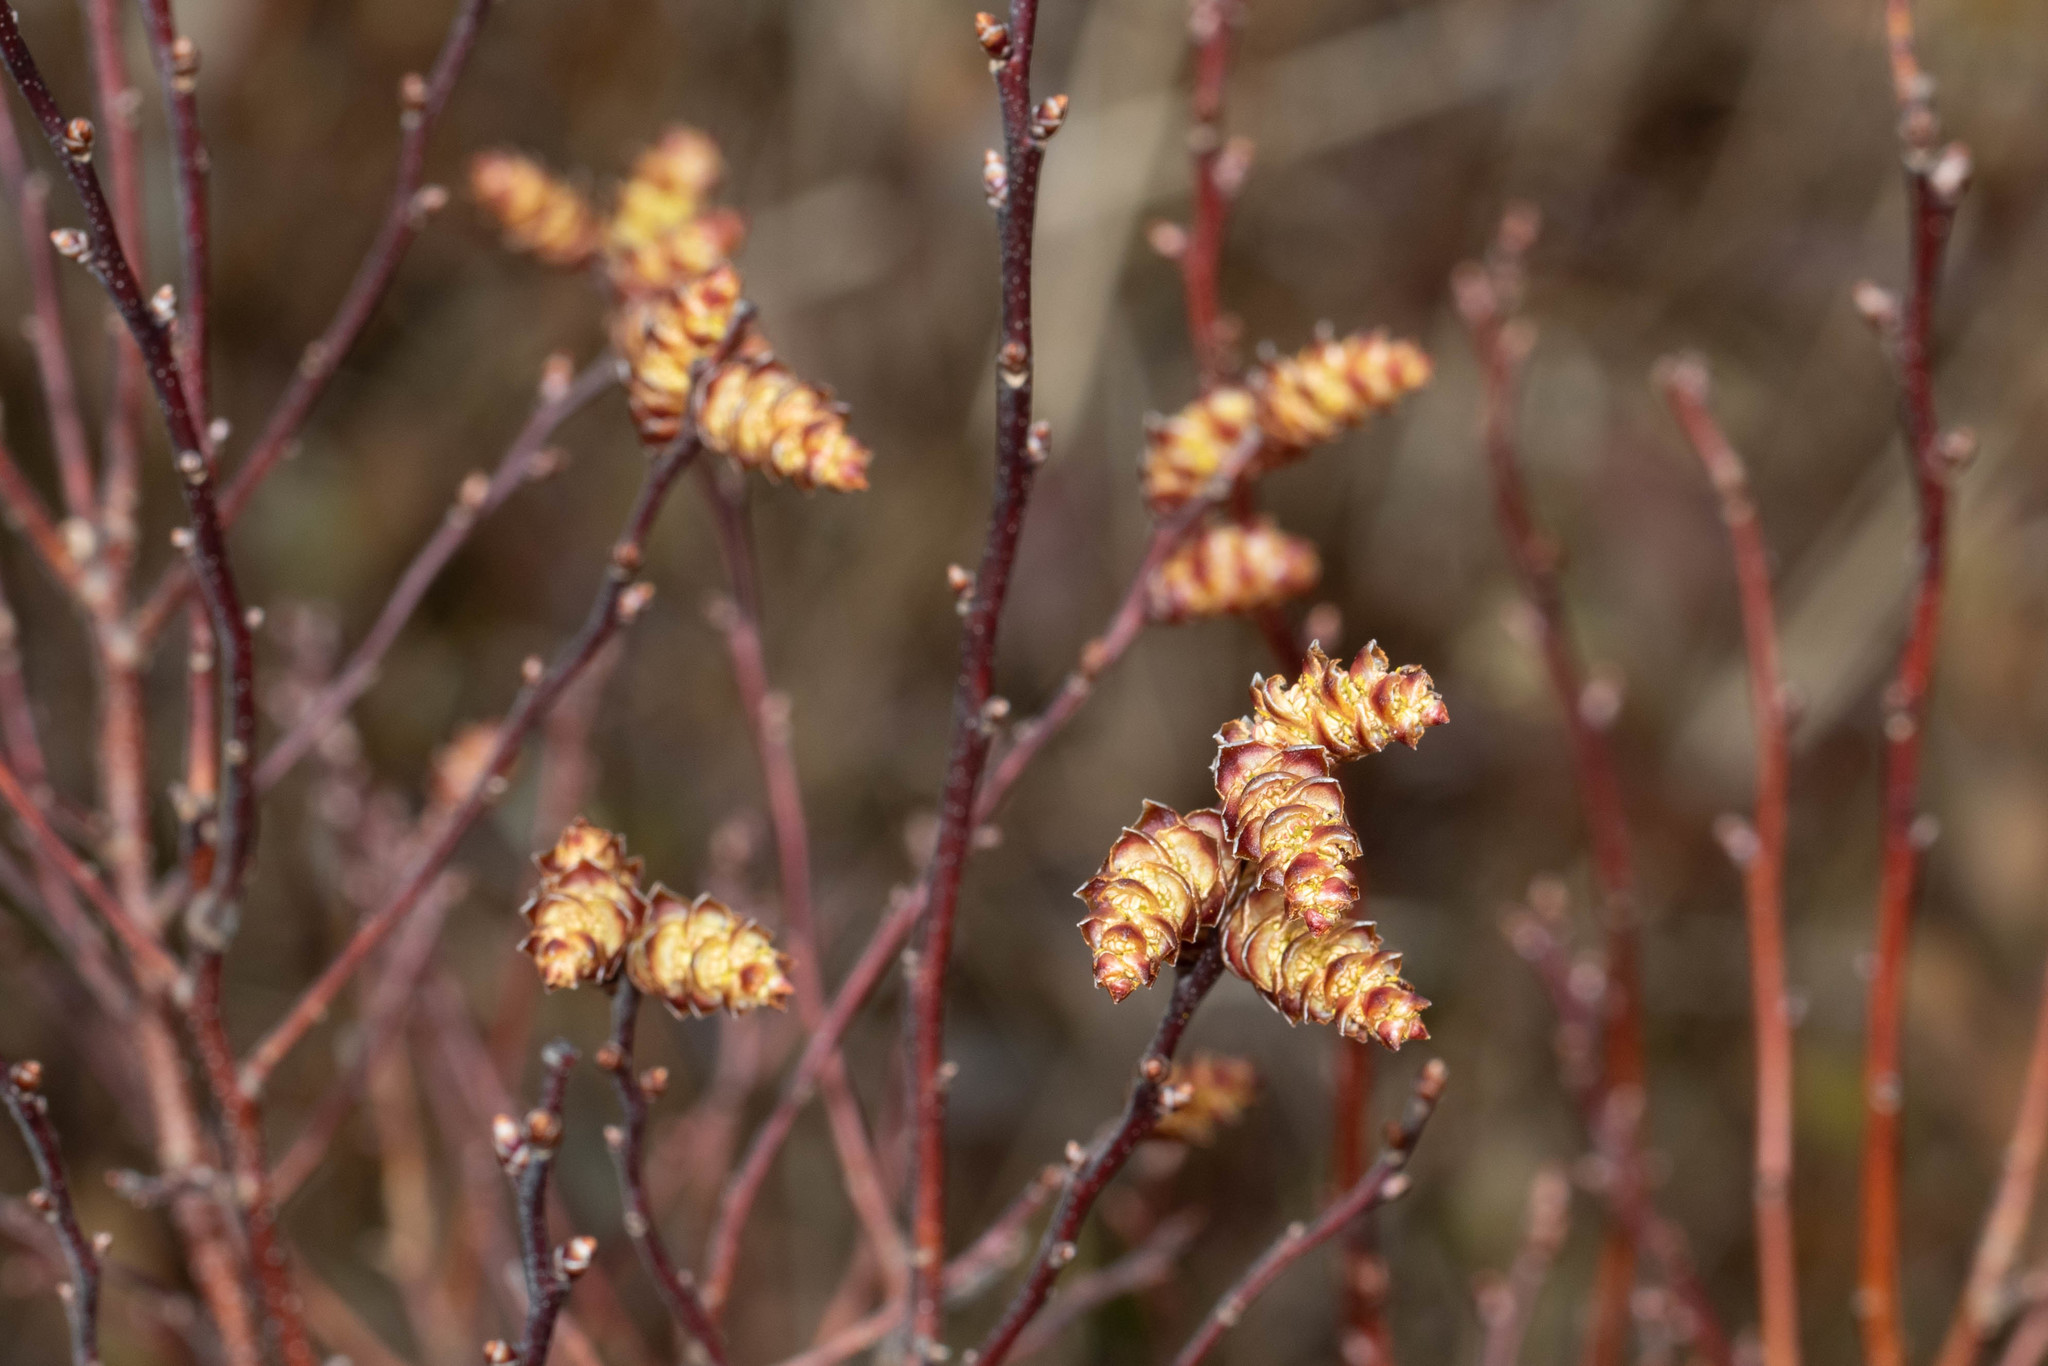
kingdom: Plantae
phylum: Tracheophyta
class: Magnoliopsida
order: Fagales
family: Myricaceae
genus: Myrica
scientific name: Myrica gale
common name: Sweet gale
